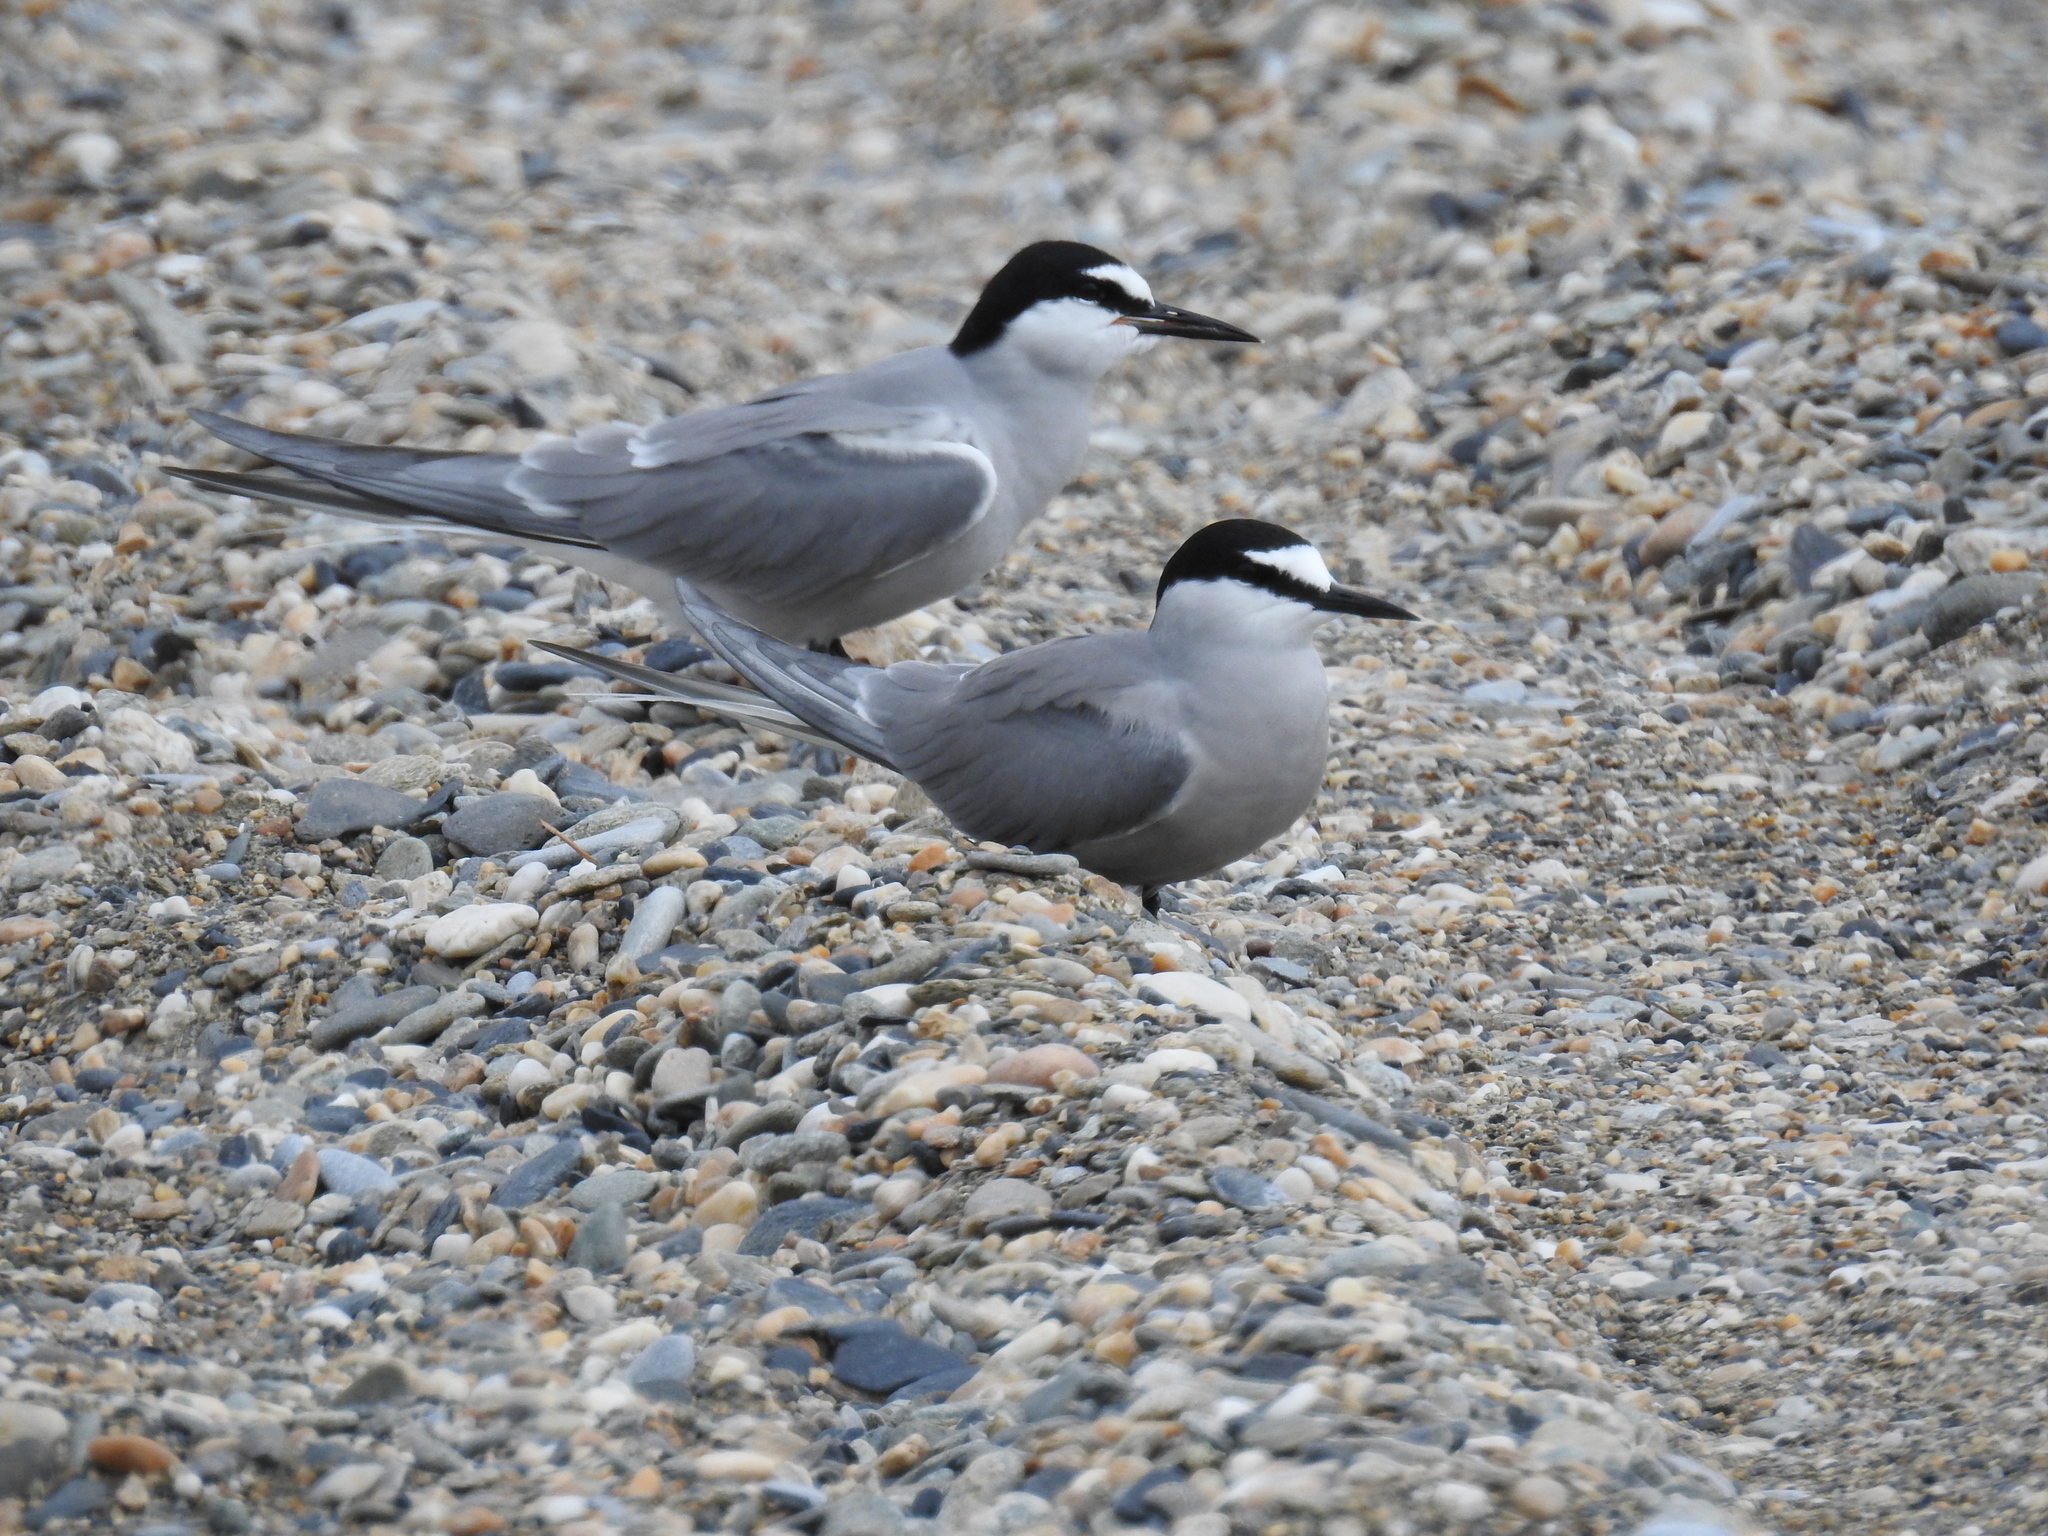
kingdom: Animalia
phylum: Chordata
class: Aves
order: Charadriiformes
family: Laridae
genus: Onychoprion
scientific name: Onychoprion aleuticus
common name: Aleutian tern
